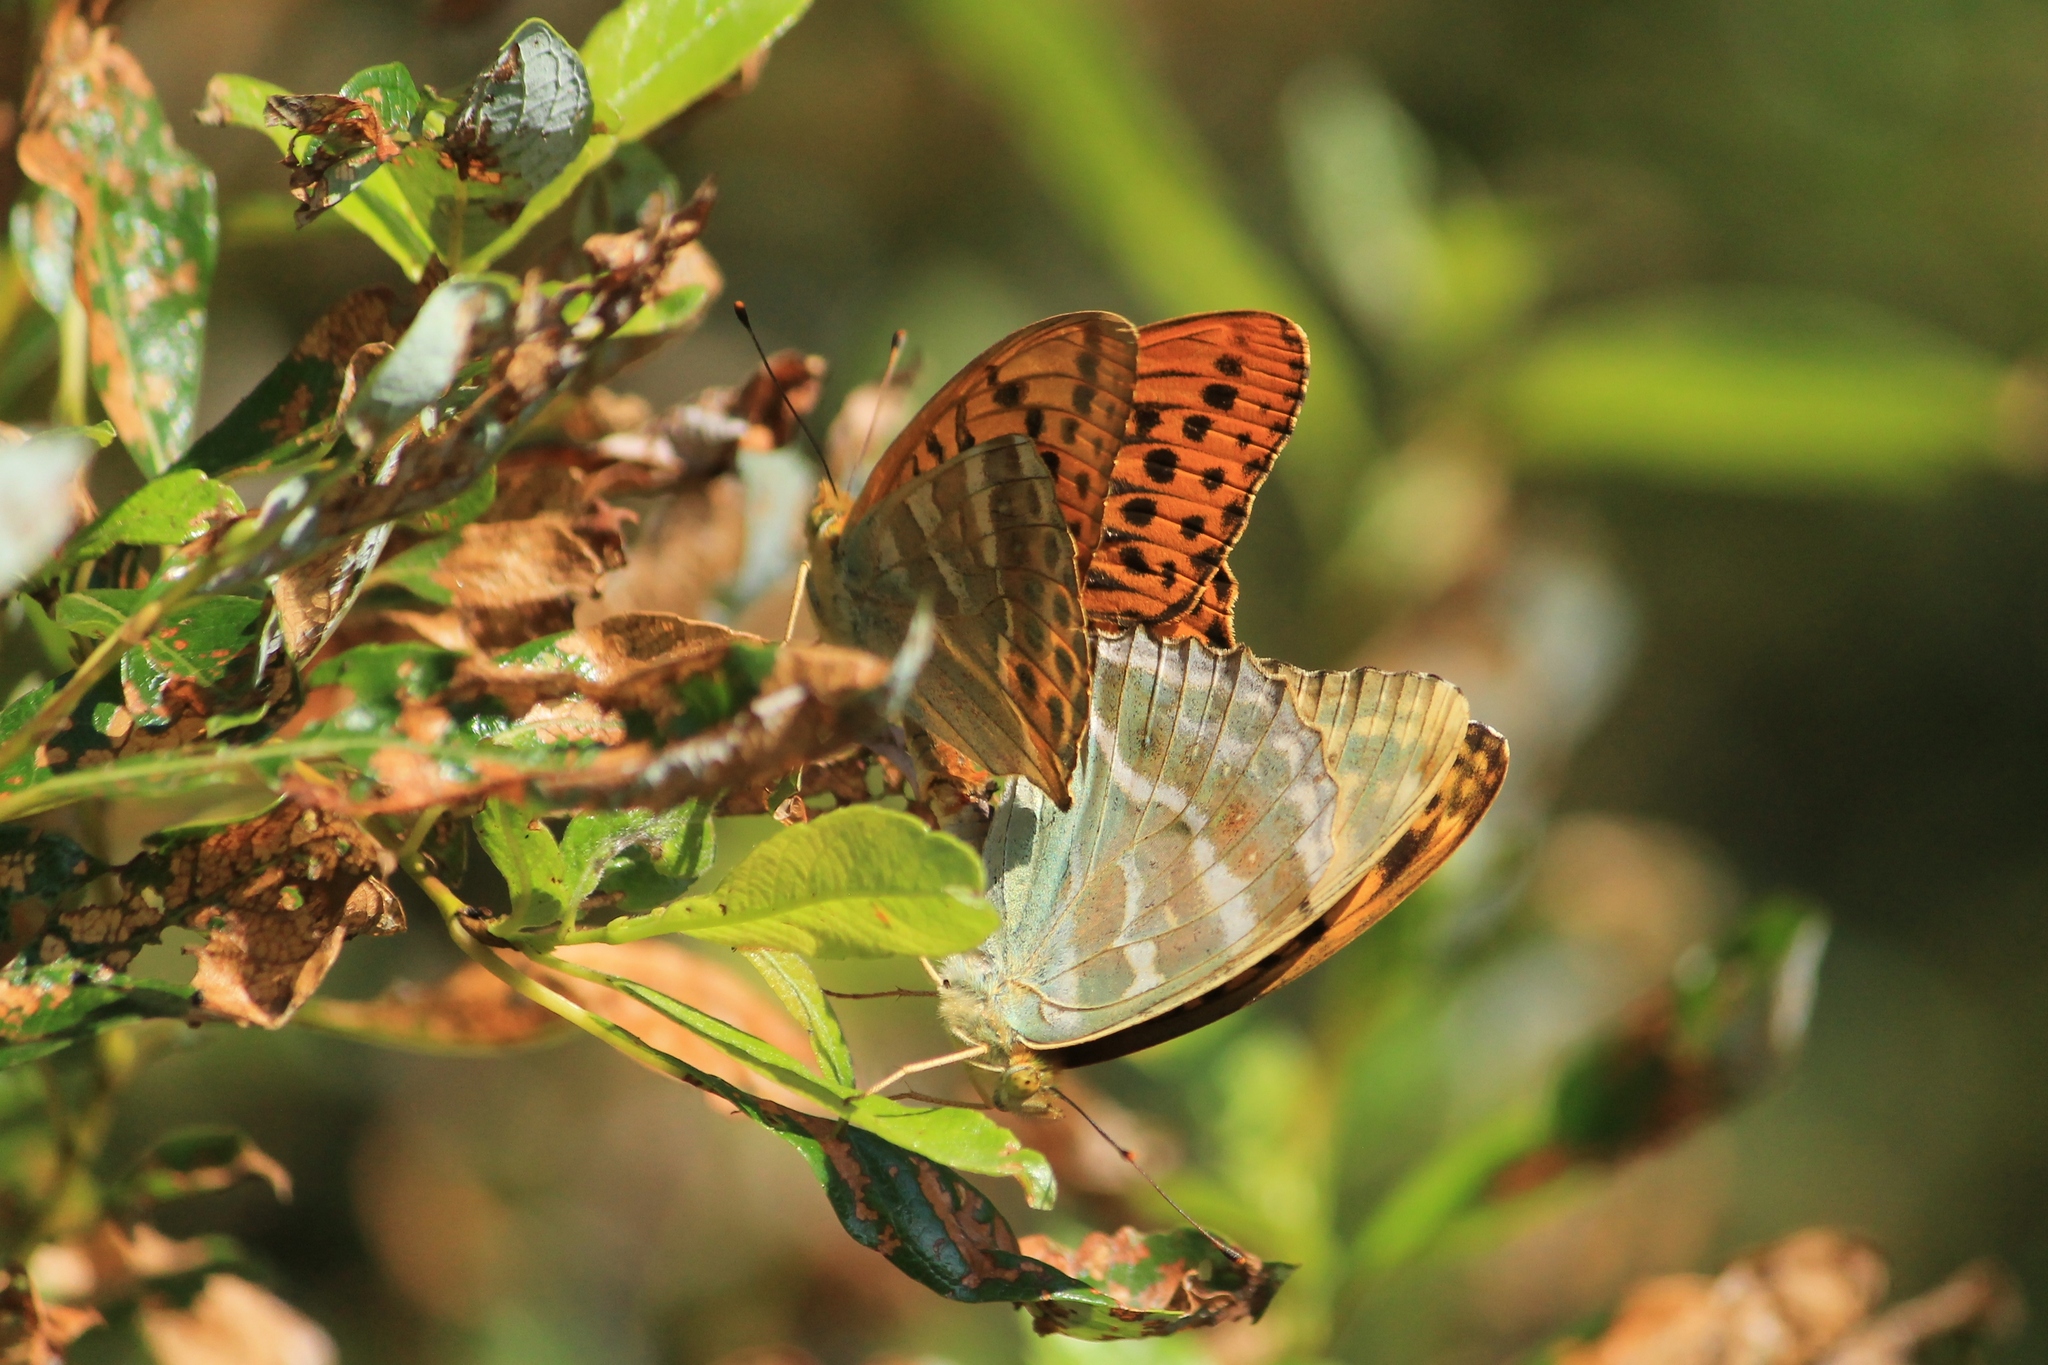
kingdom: Animalia
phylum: Arthropoda
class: Insecta
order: Lepidoptera
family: Nymphalidae
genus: Argynnis
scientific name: Argynnis paphia
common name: Silver-washed fritillary
